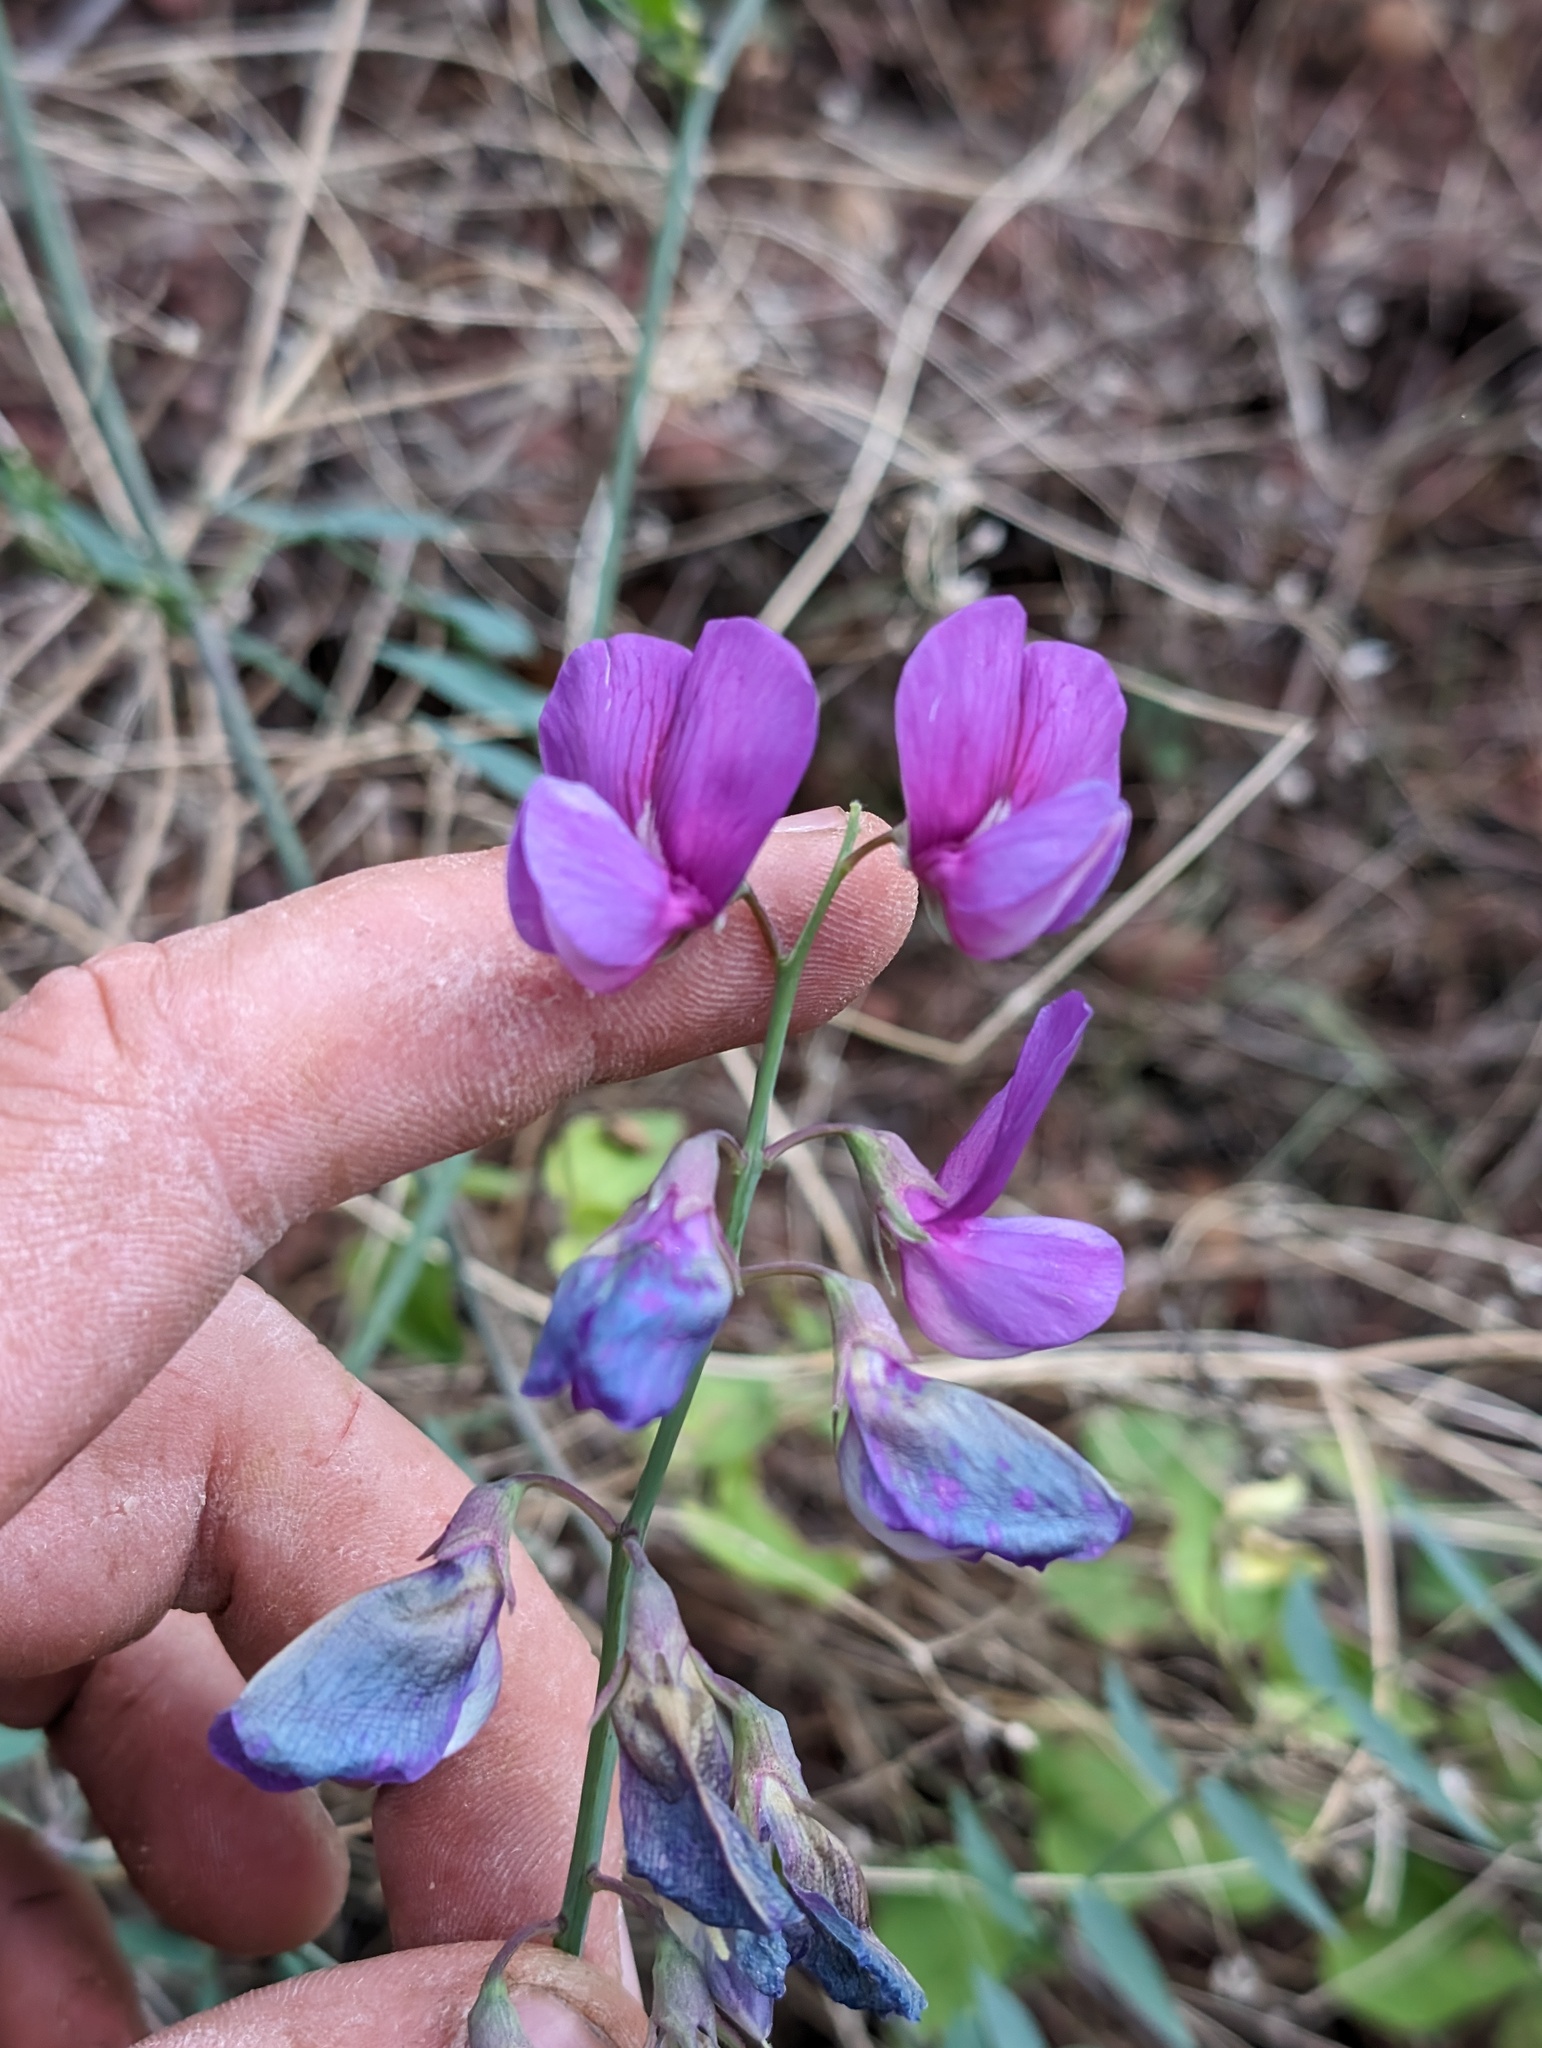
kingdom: Plantae
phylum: Tracheophyta
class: Magnoliopsida
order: Fabales
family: Fabaceae
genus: Lathyrus
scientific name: Lathyrus vestitus
